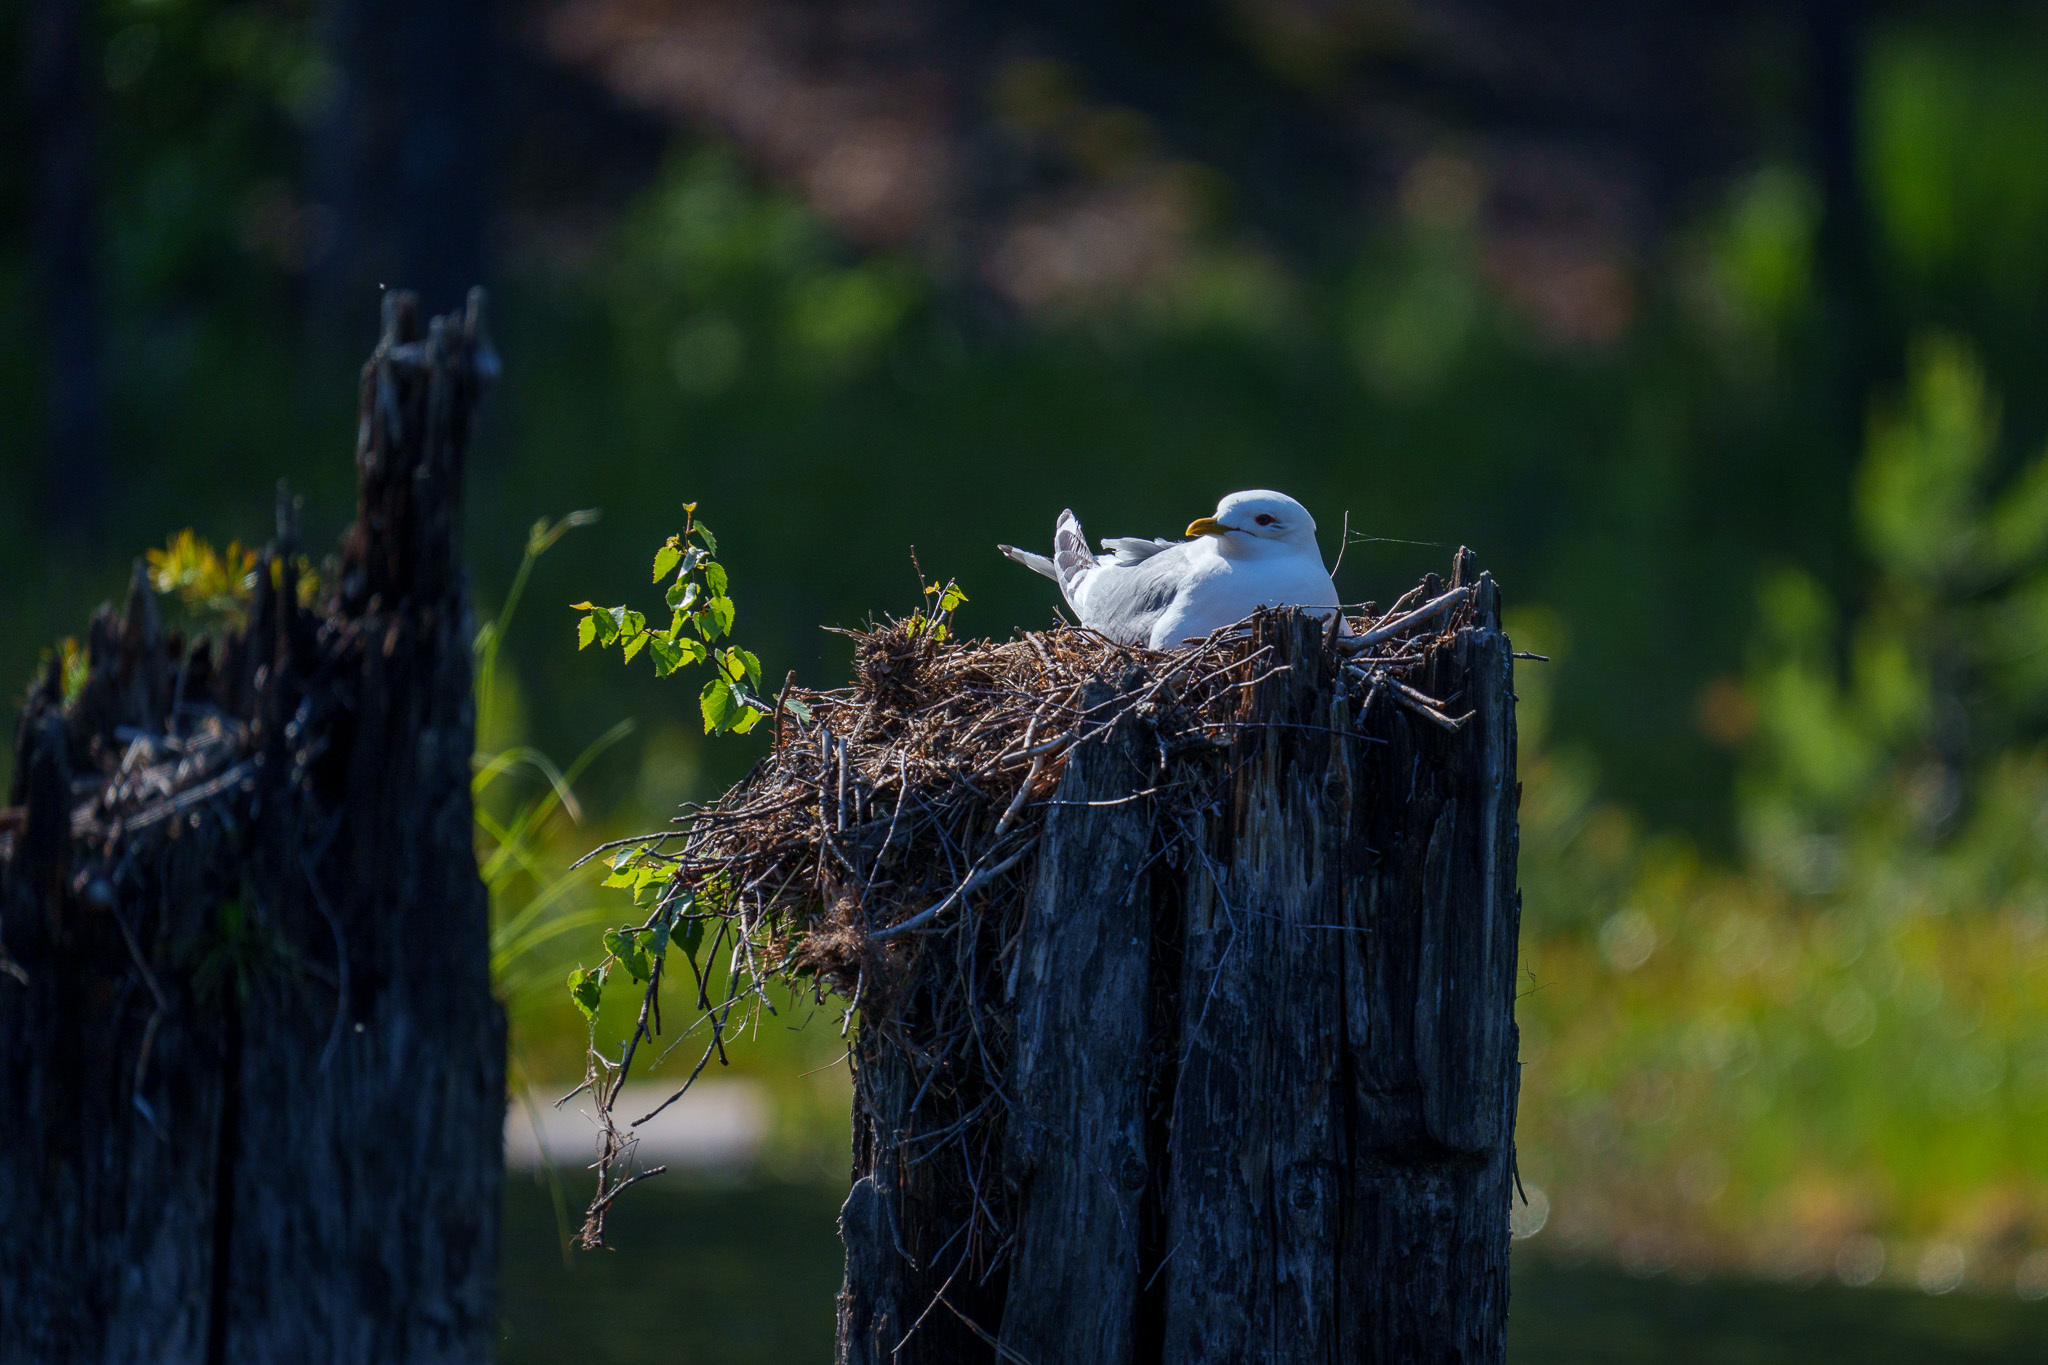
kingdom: Animalia
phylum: Chordata
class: Aves
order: Charadriiformes
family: Laridae
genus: Larus
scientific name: Larus canus
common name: Mew gull
